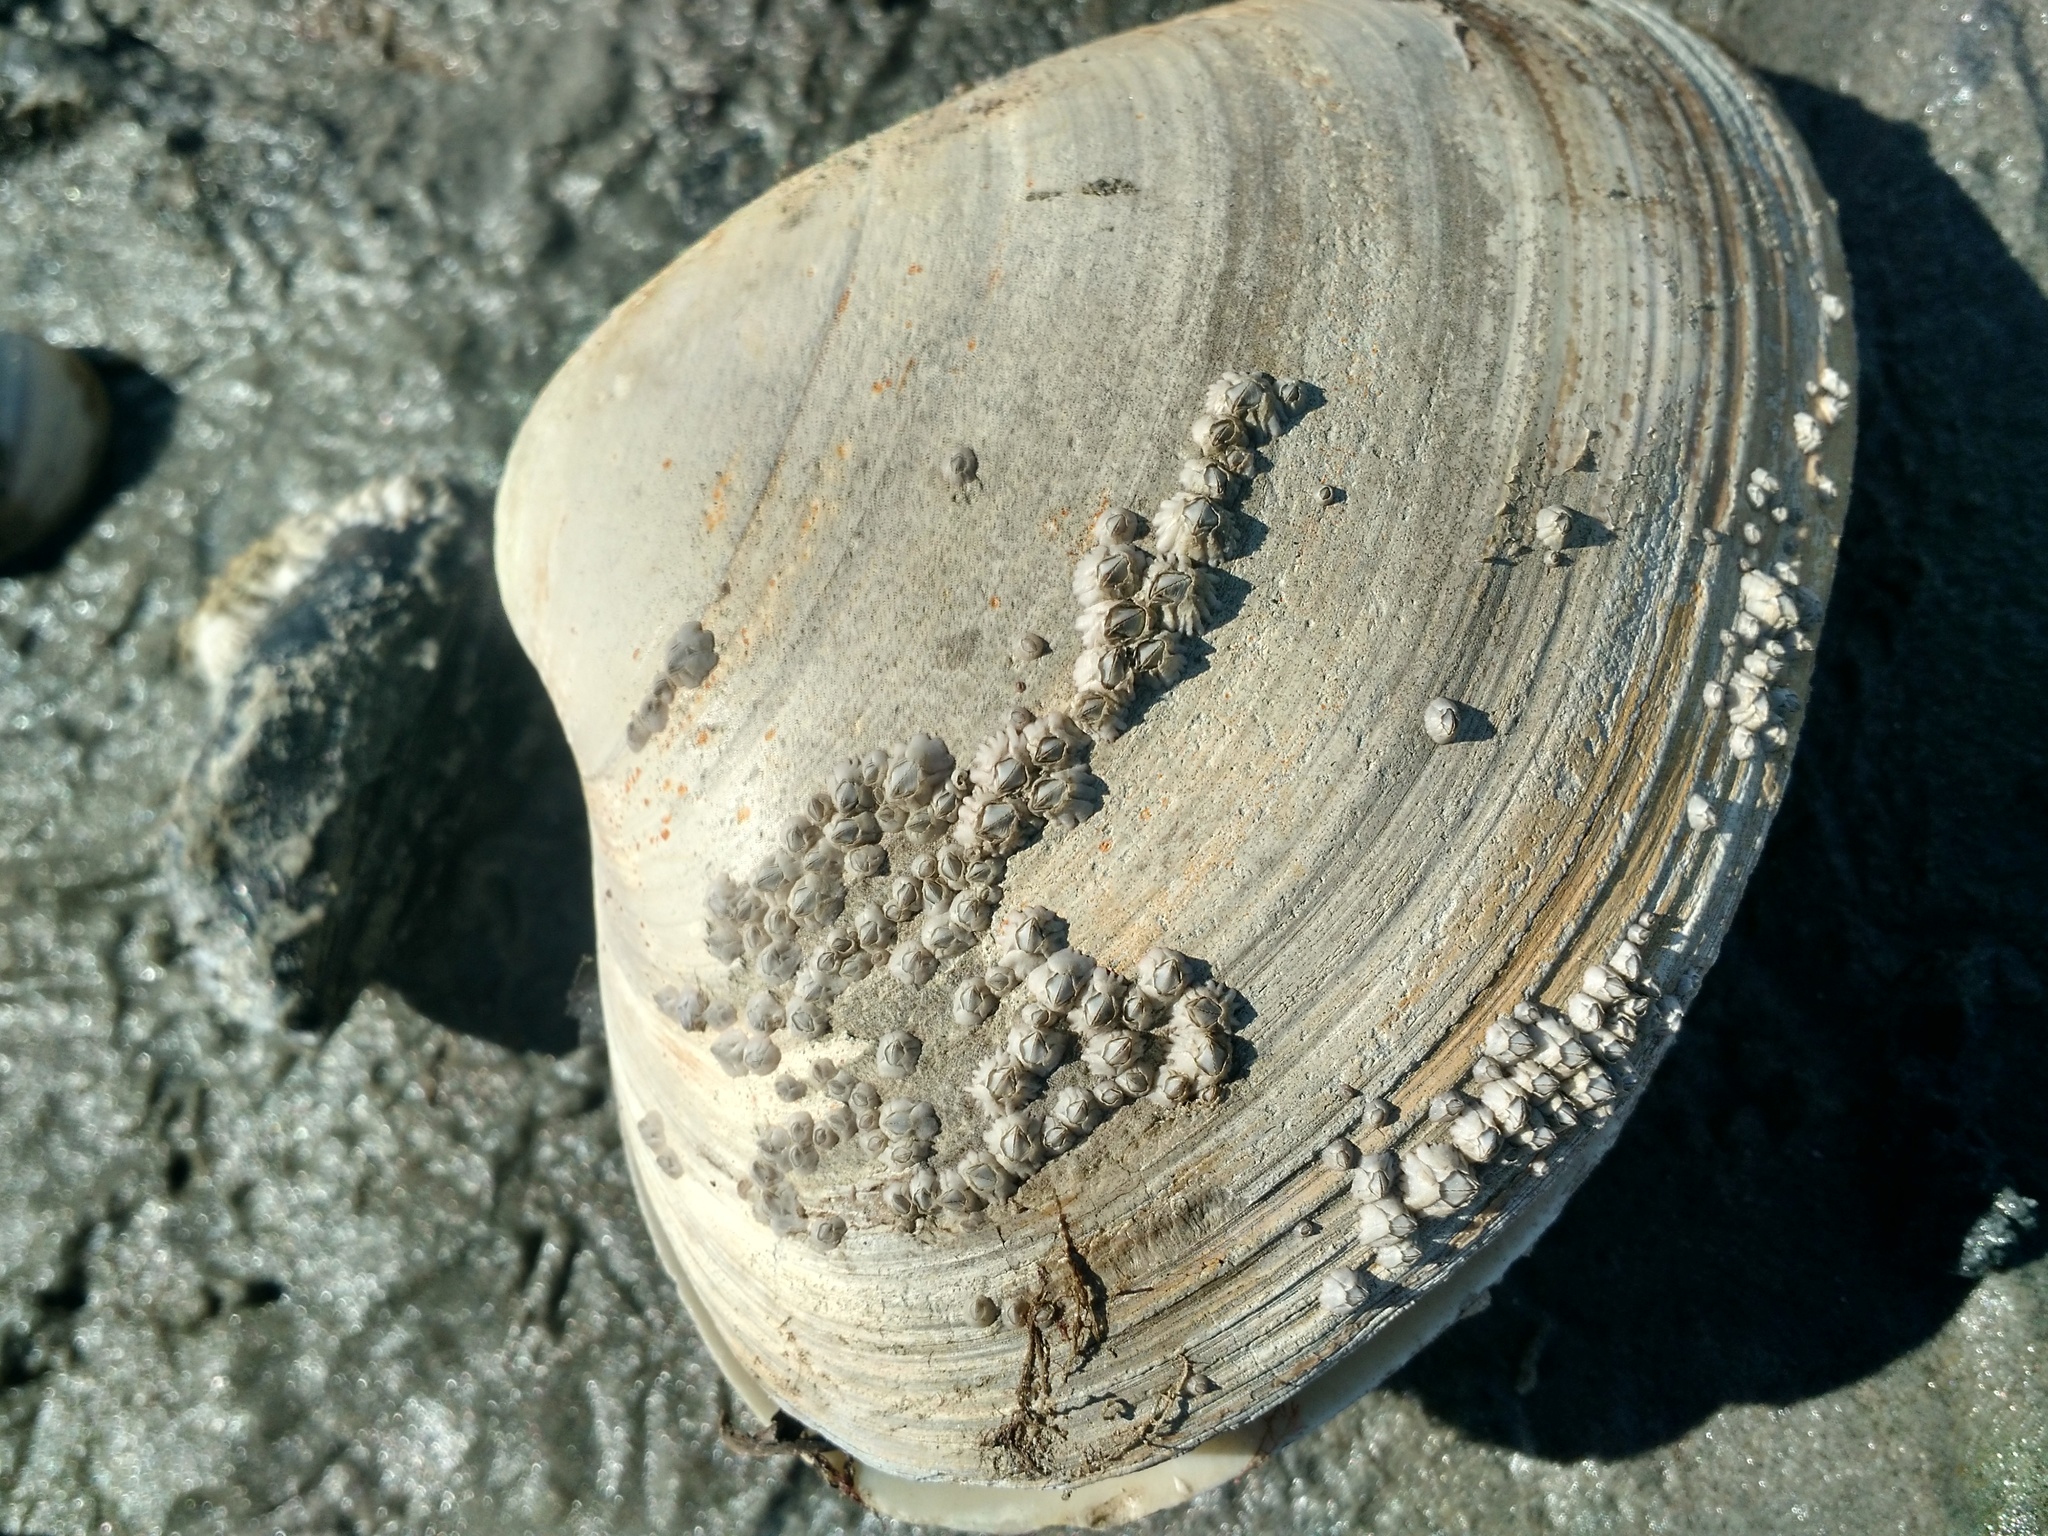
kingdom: Animalia
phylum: Mollusca
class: Bivalvia
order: Venerida
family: Mactridae
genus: Spisula
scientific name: Spisula solidissima
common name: Atlantic surf clam
